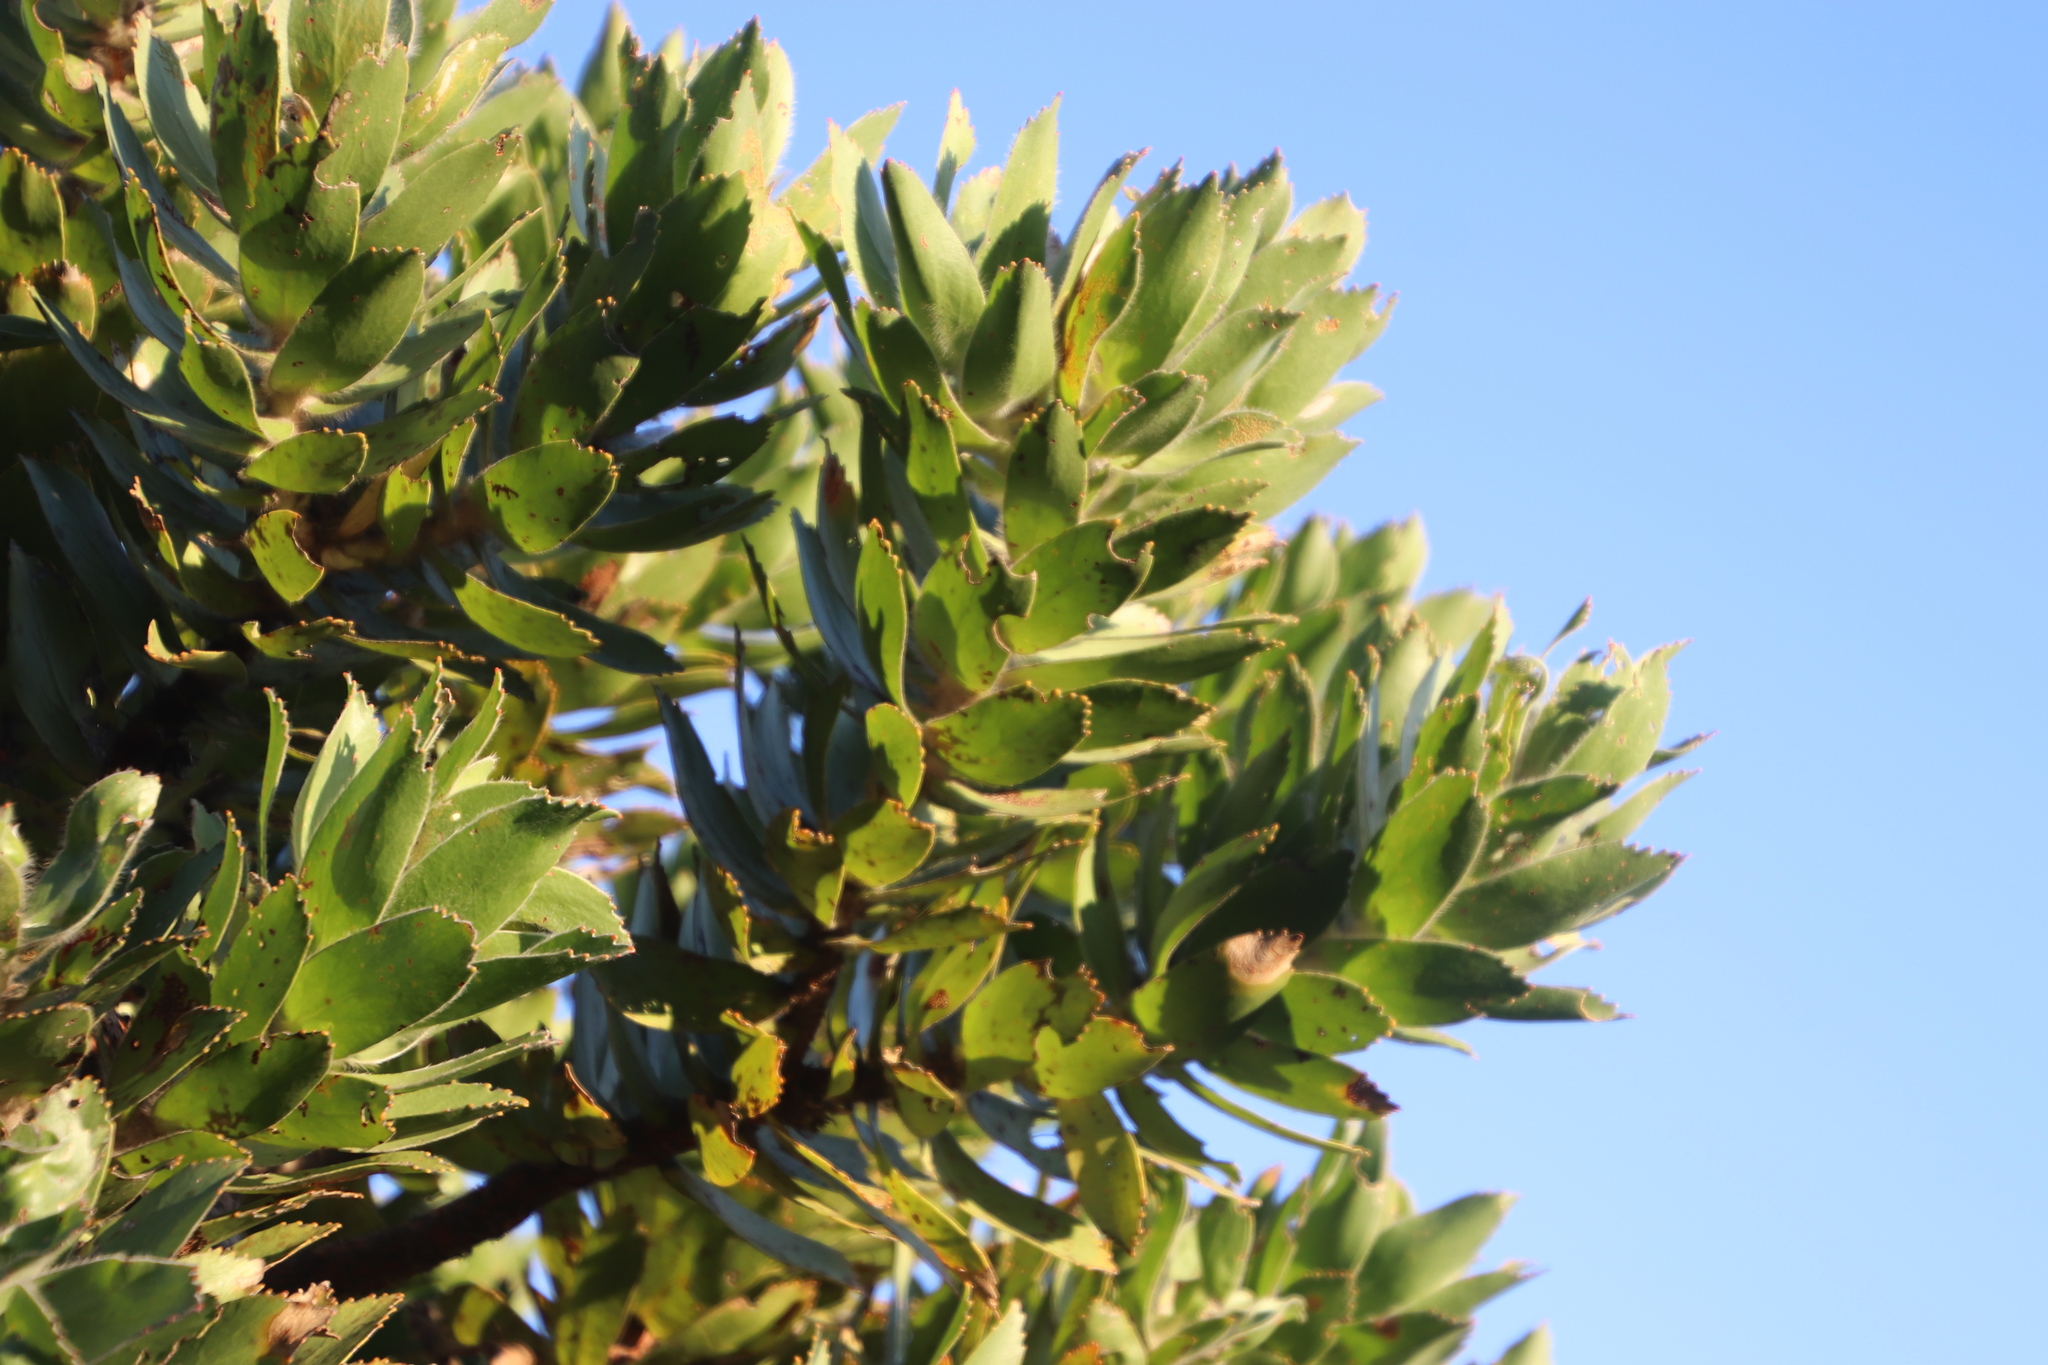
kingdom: Plantae
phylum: Tracheophyta
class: Magnoliopsida
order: Proteales
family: Proteaceae
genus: Leucospermum
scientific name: Leucospermum conocarpodendron
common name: Tree pincushion
